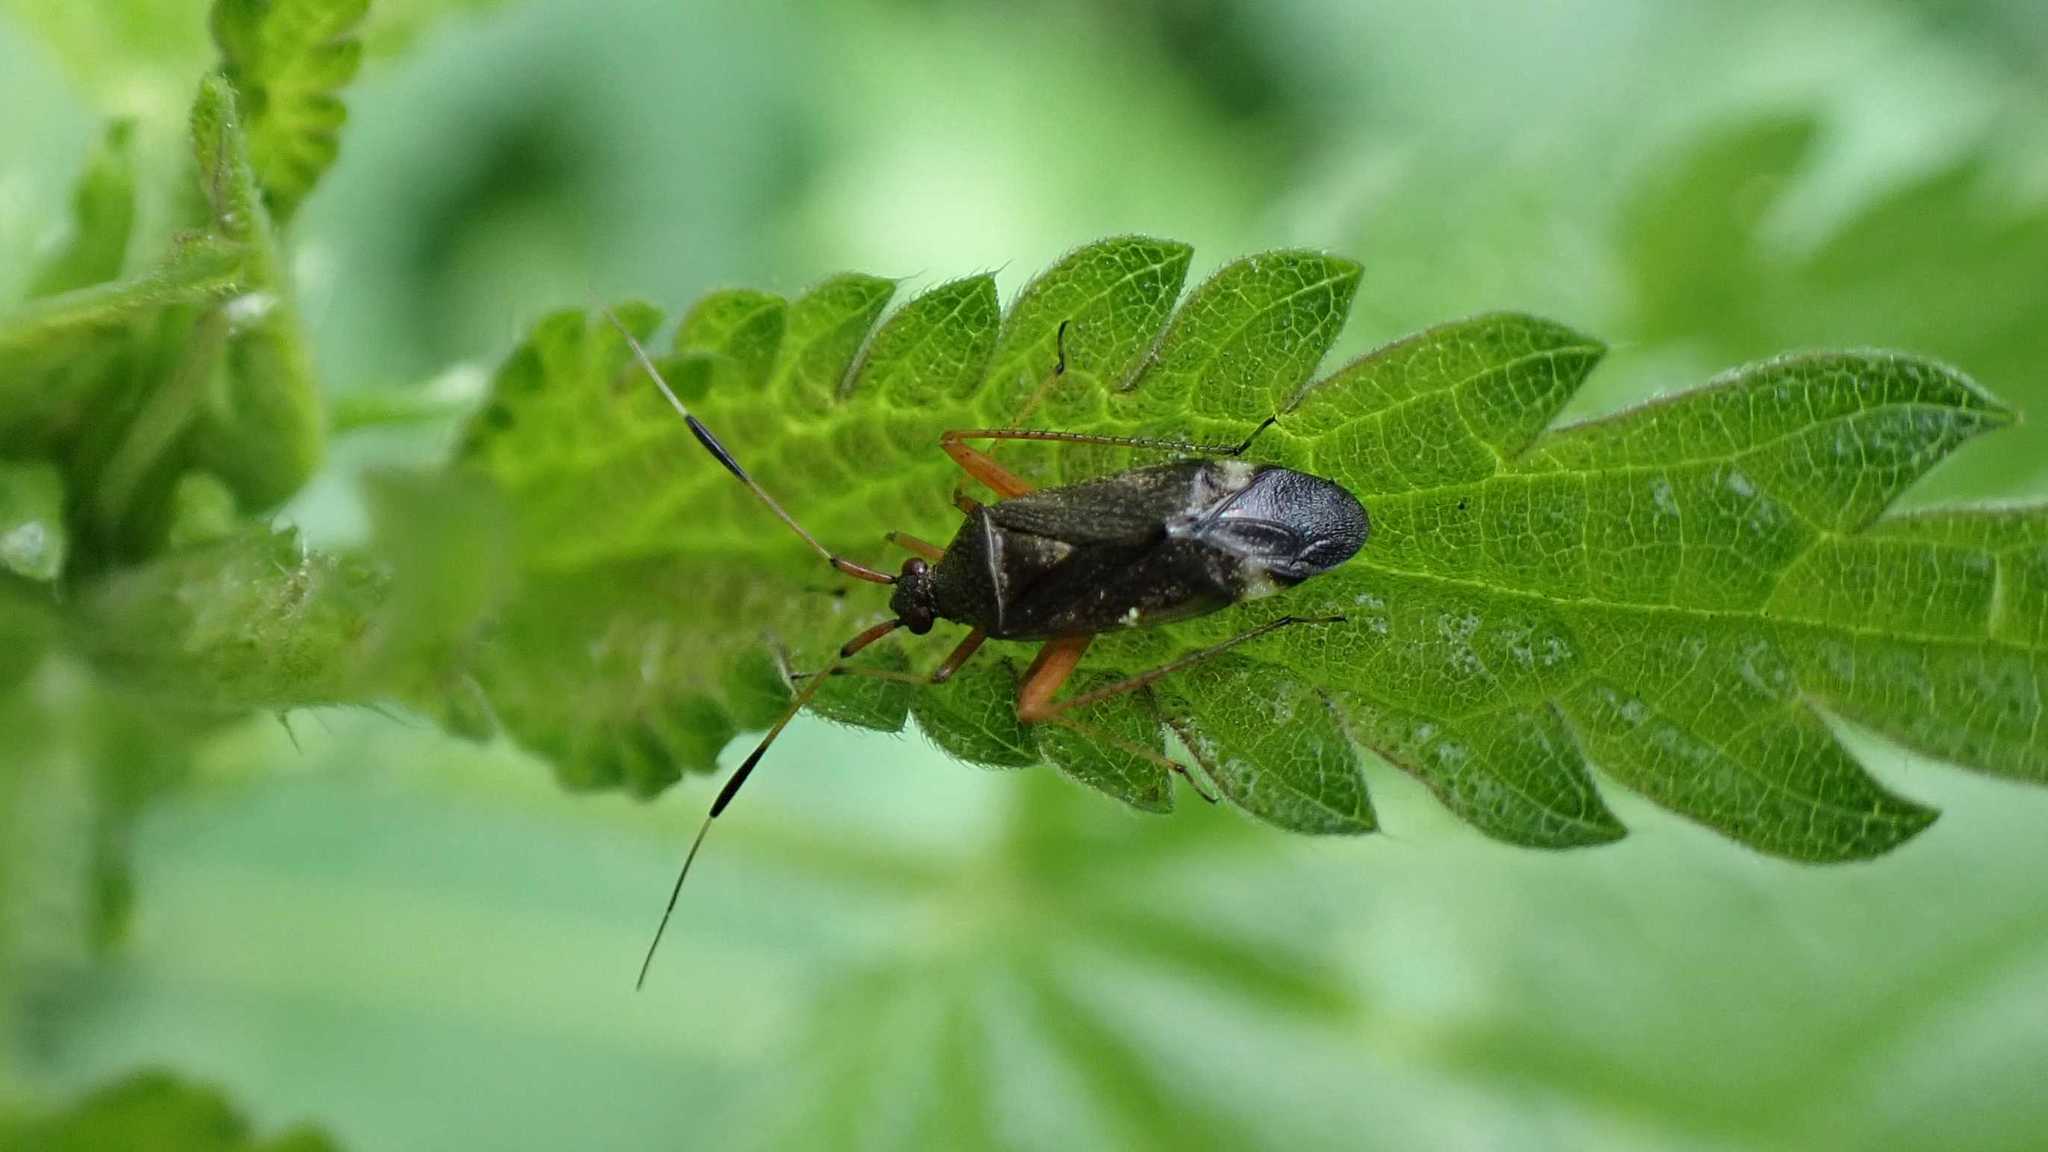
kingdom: Animalia
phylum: Arthropoda
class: Insecta
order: Hemiptera
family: Miridae
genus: Closterotomus
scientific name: Closterotomus biclavatus
